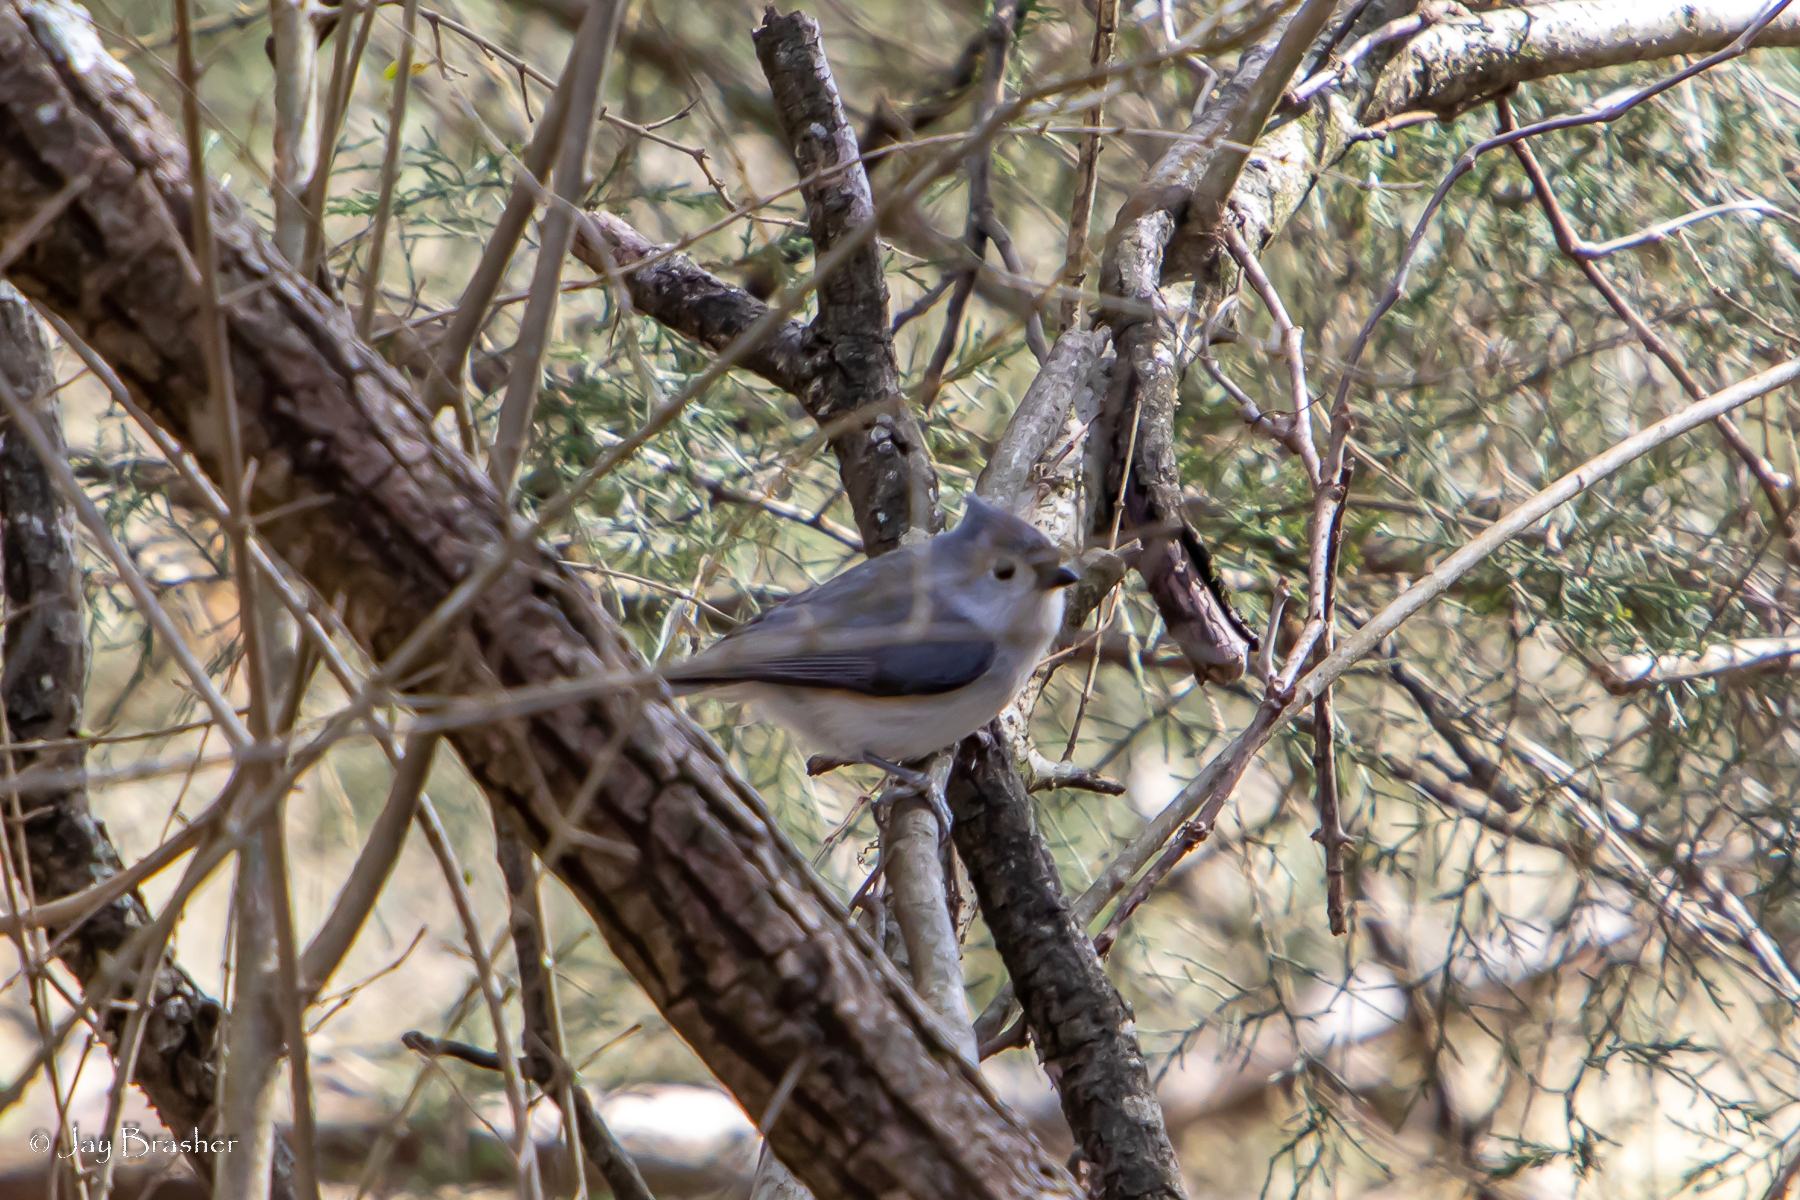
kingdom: Animalia
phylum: Chordata
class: Aves
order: Passeriformes
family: Paridae
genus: Baeolophus
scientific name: Baeolophus bicolor
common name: Tufted titmouse
